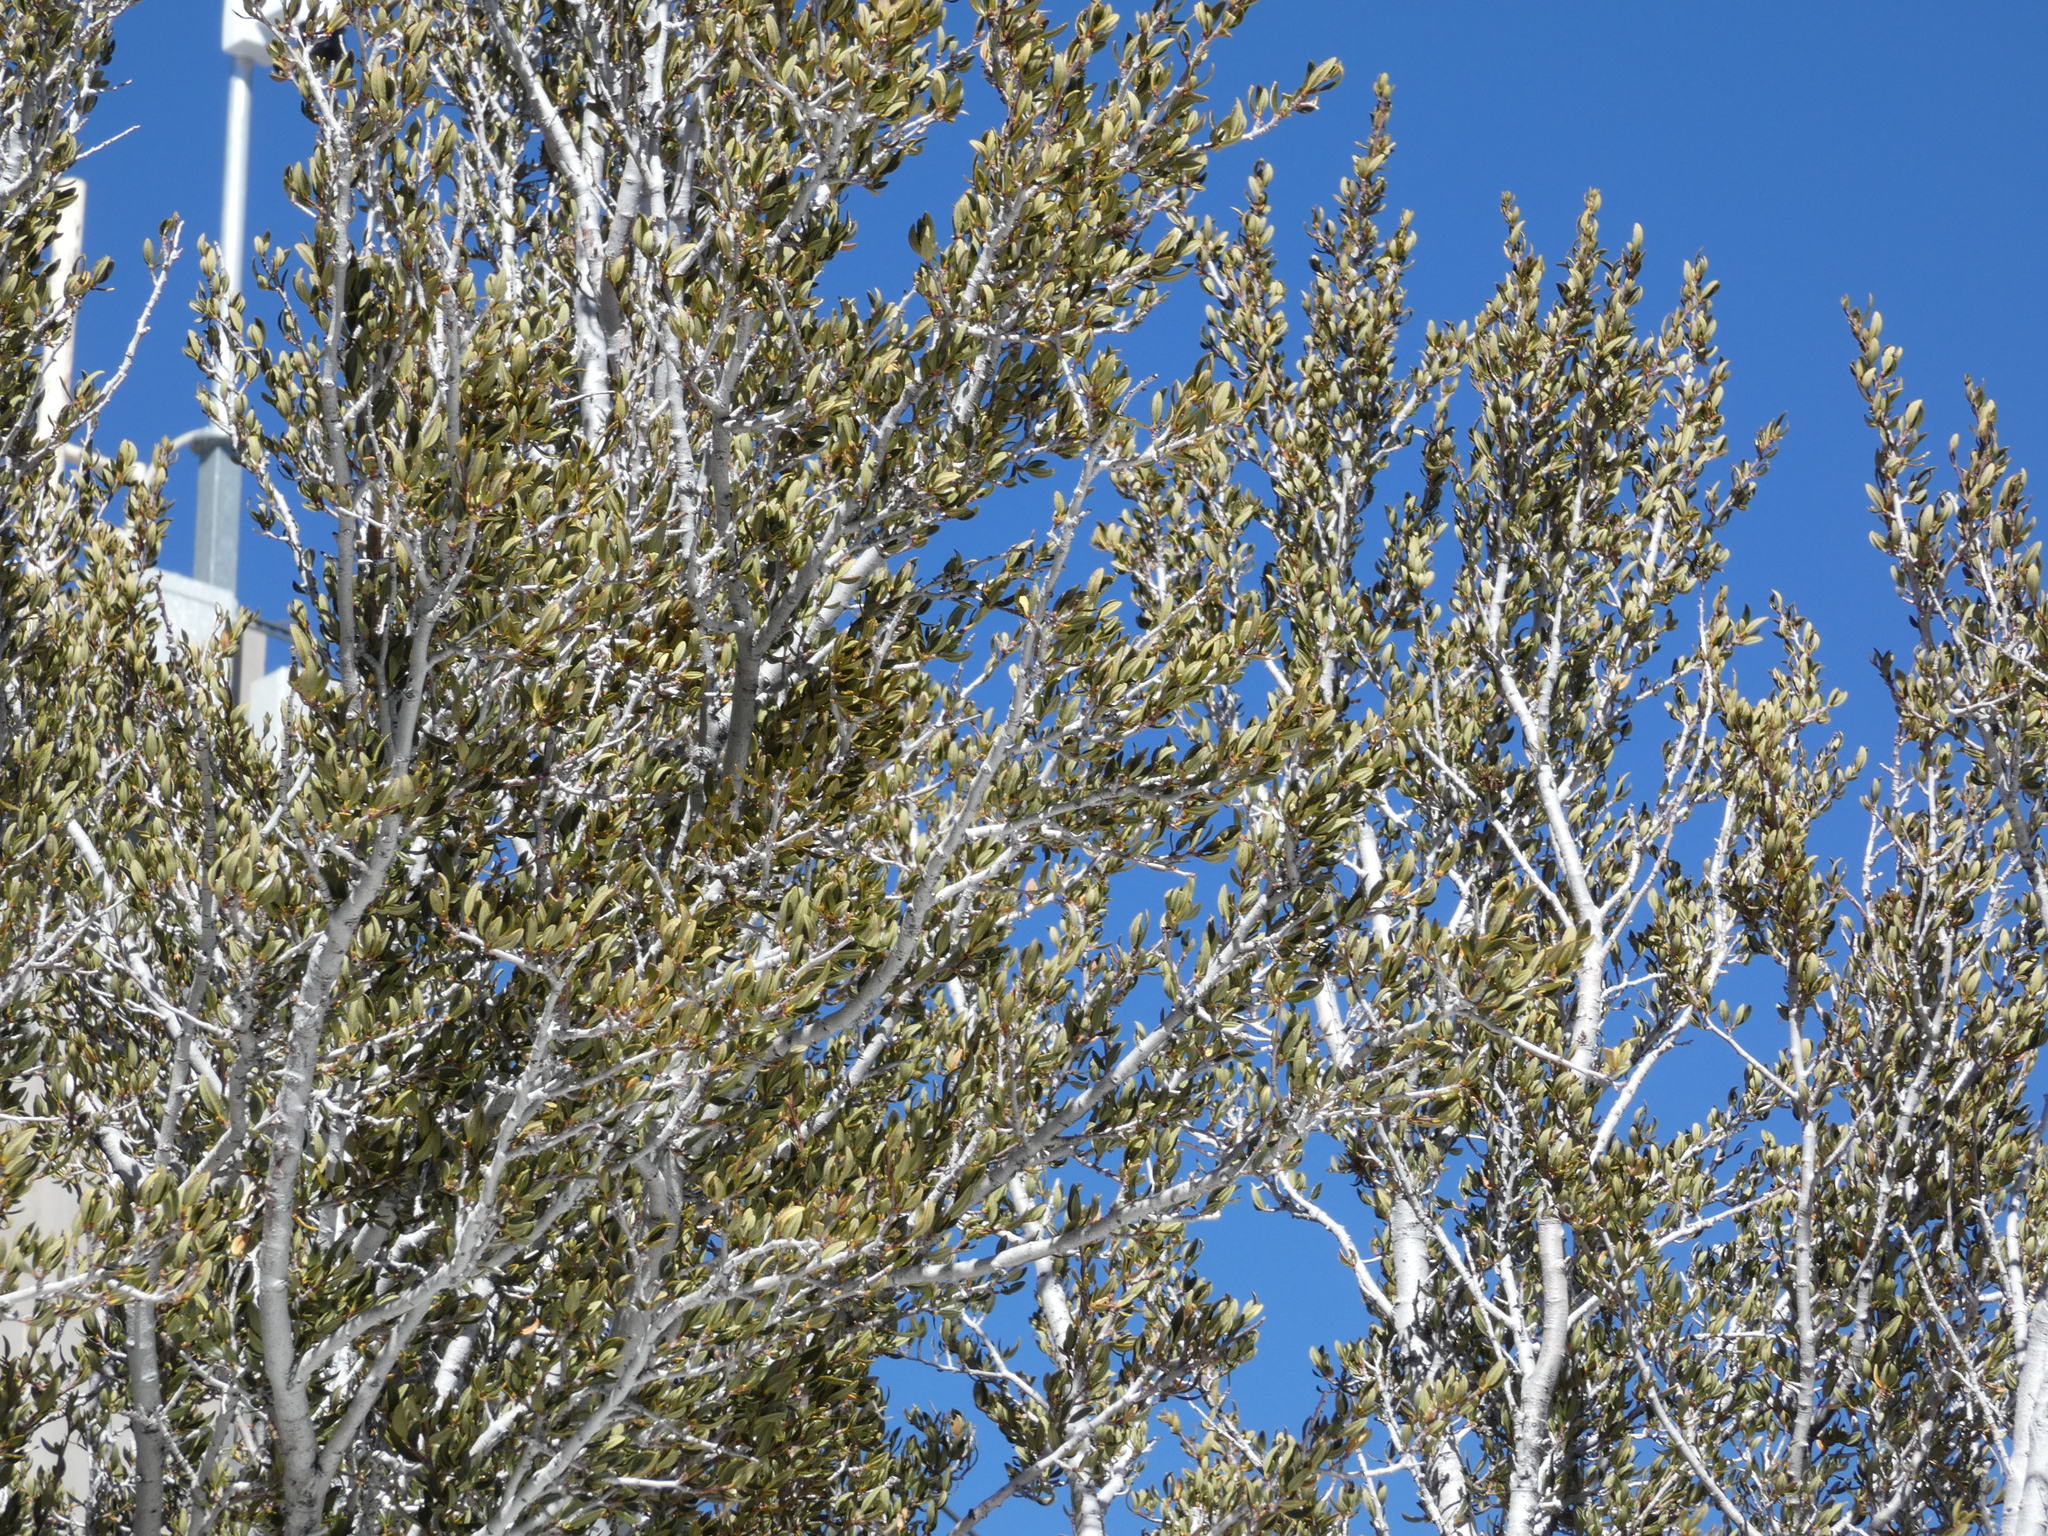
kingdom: Plantae
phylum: Tracheophyta
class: Magnoliopsida
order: Rosales
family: Rosaceae
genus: Cercocarpus
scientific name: Cercocarpus ledifolius
